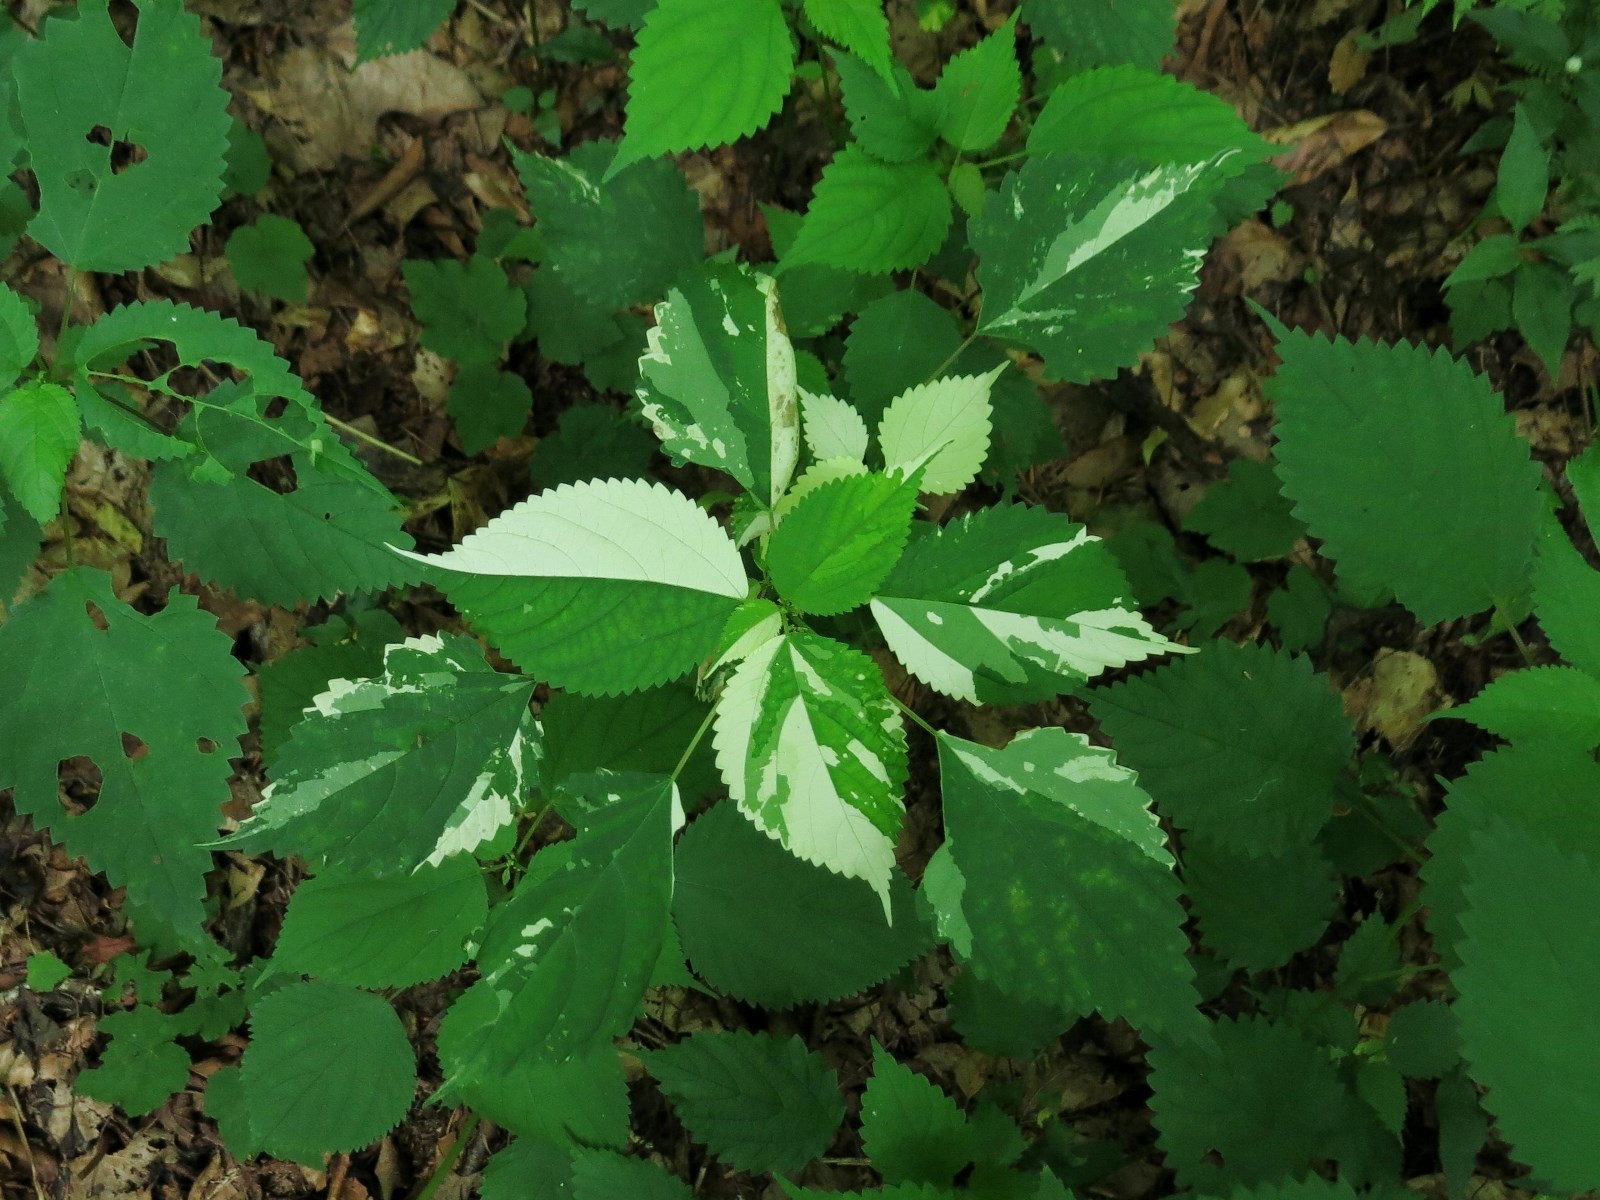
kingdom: Plantae
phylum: Tracheophyta
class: Magnoliopsida
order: Rosales
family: Urticaceae
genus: Laportea
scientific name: Laportea canadensis
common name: Canada nettle
